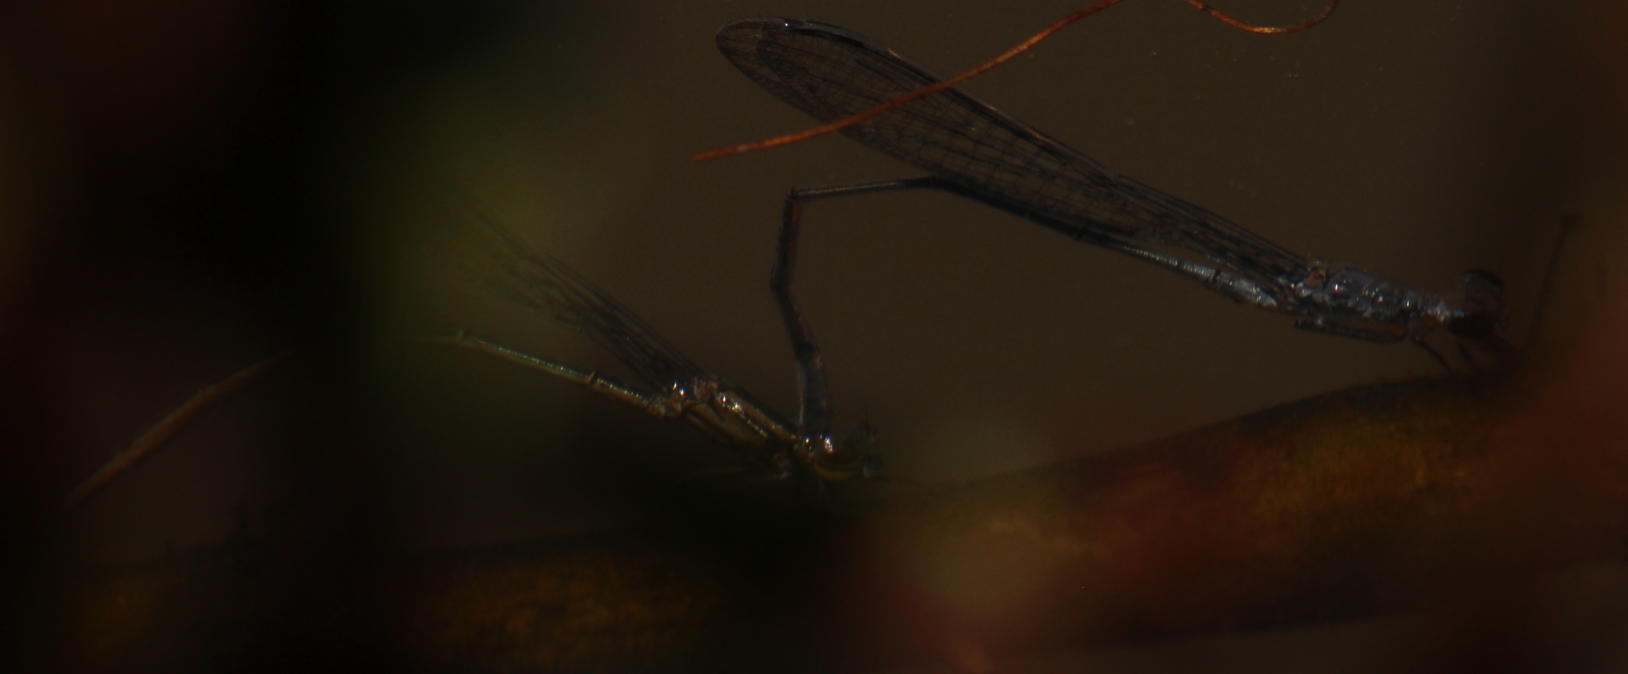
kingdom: Animalia
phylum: Arthropoda
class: Insecta
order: Odonata
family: Coenagrionidae
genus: Pseudagrion
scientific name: Pseudagrion salisburyense
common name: Slate sprite
